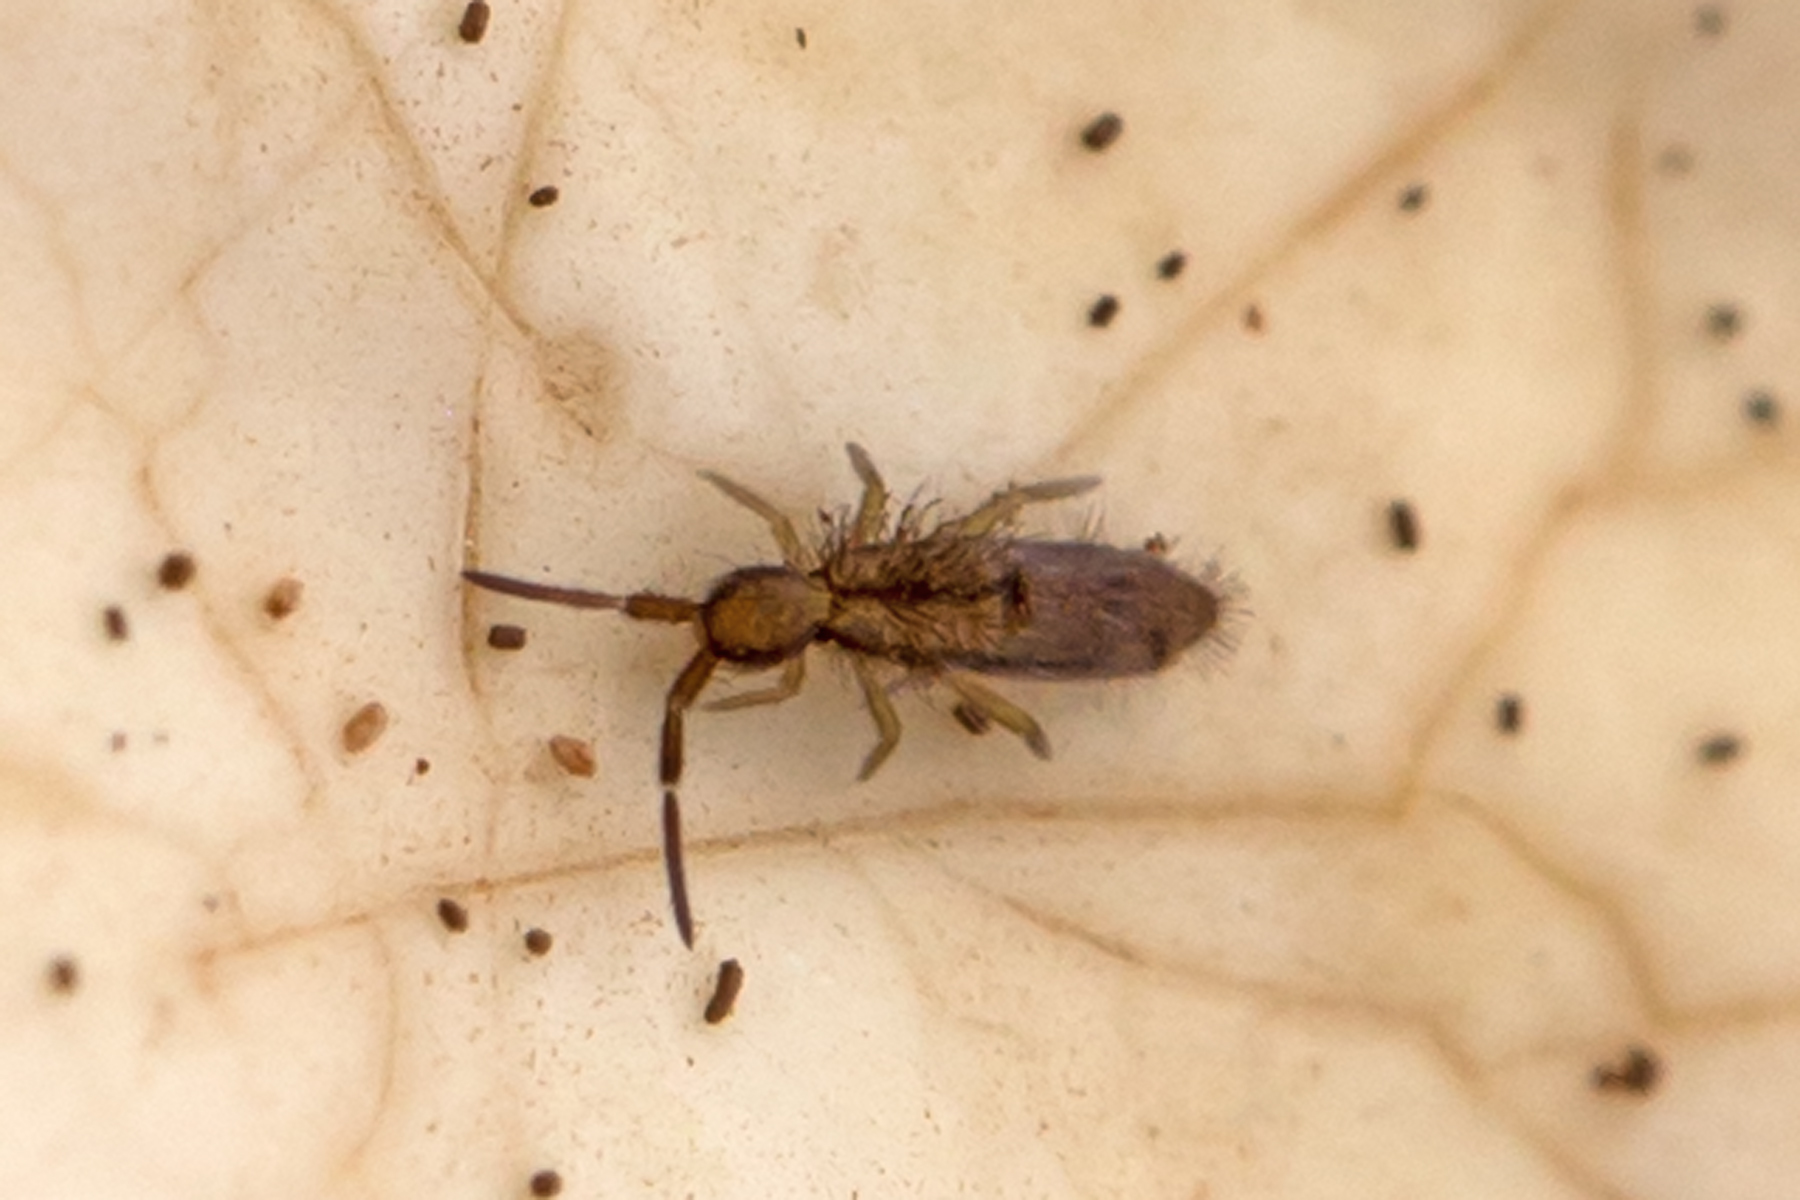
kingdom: Animalia
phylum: Arthropoda
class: Collembola
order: Entomobryomorpha
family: Entomobryidae
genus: Homidia
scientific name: Homidia socia
